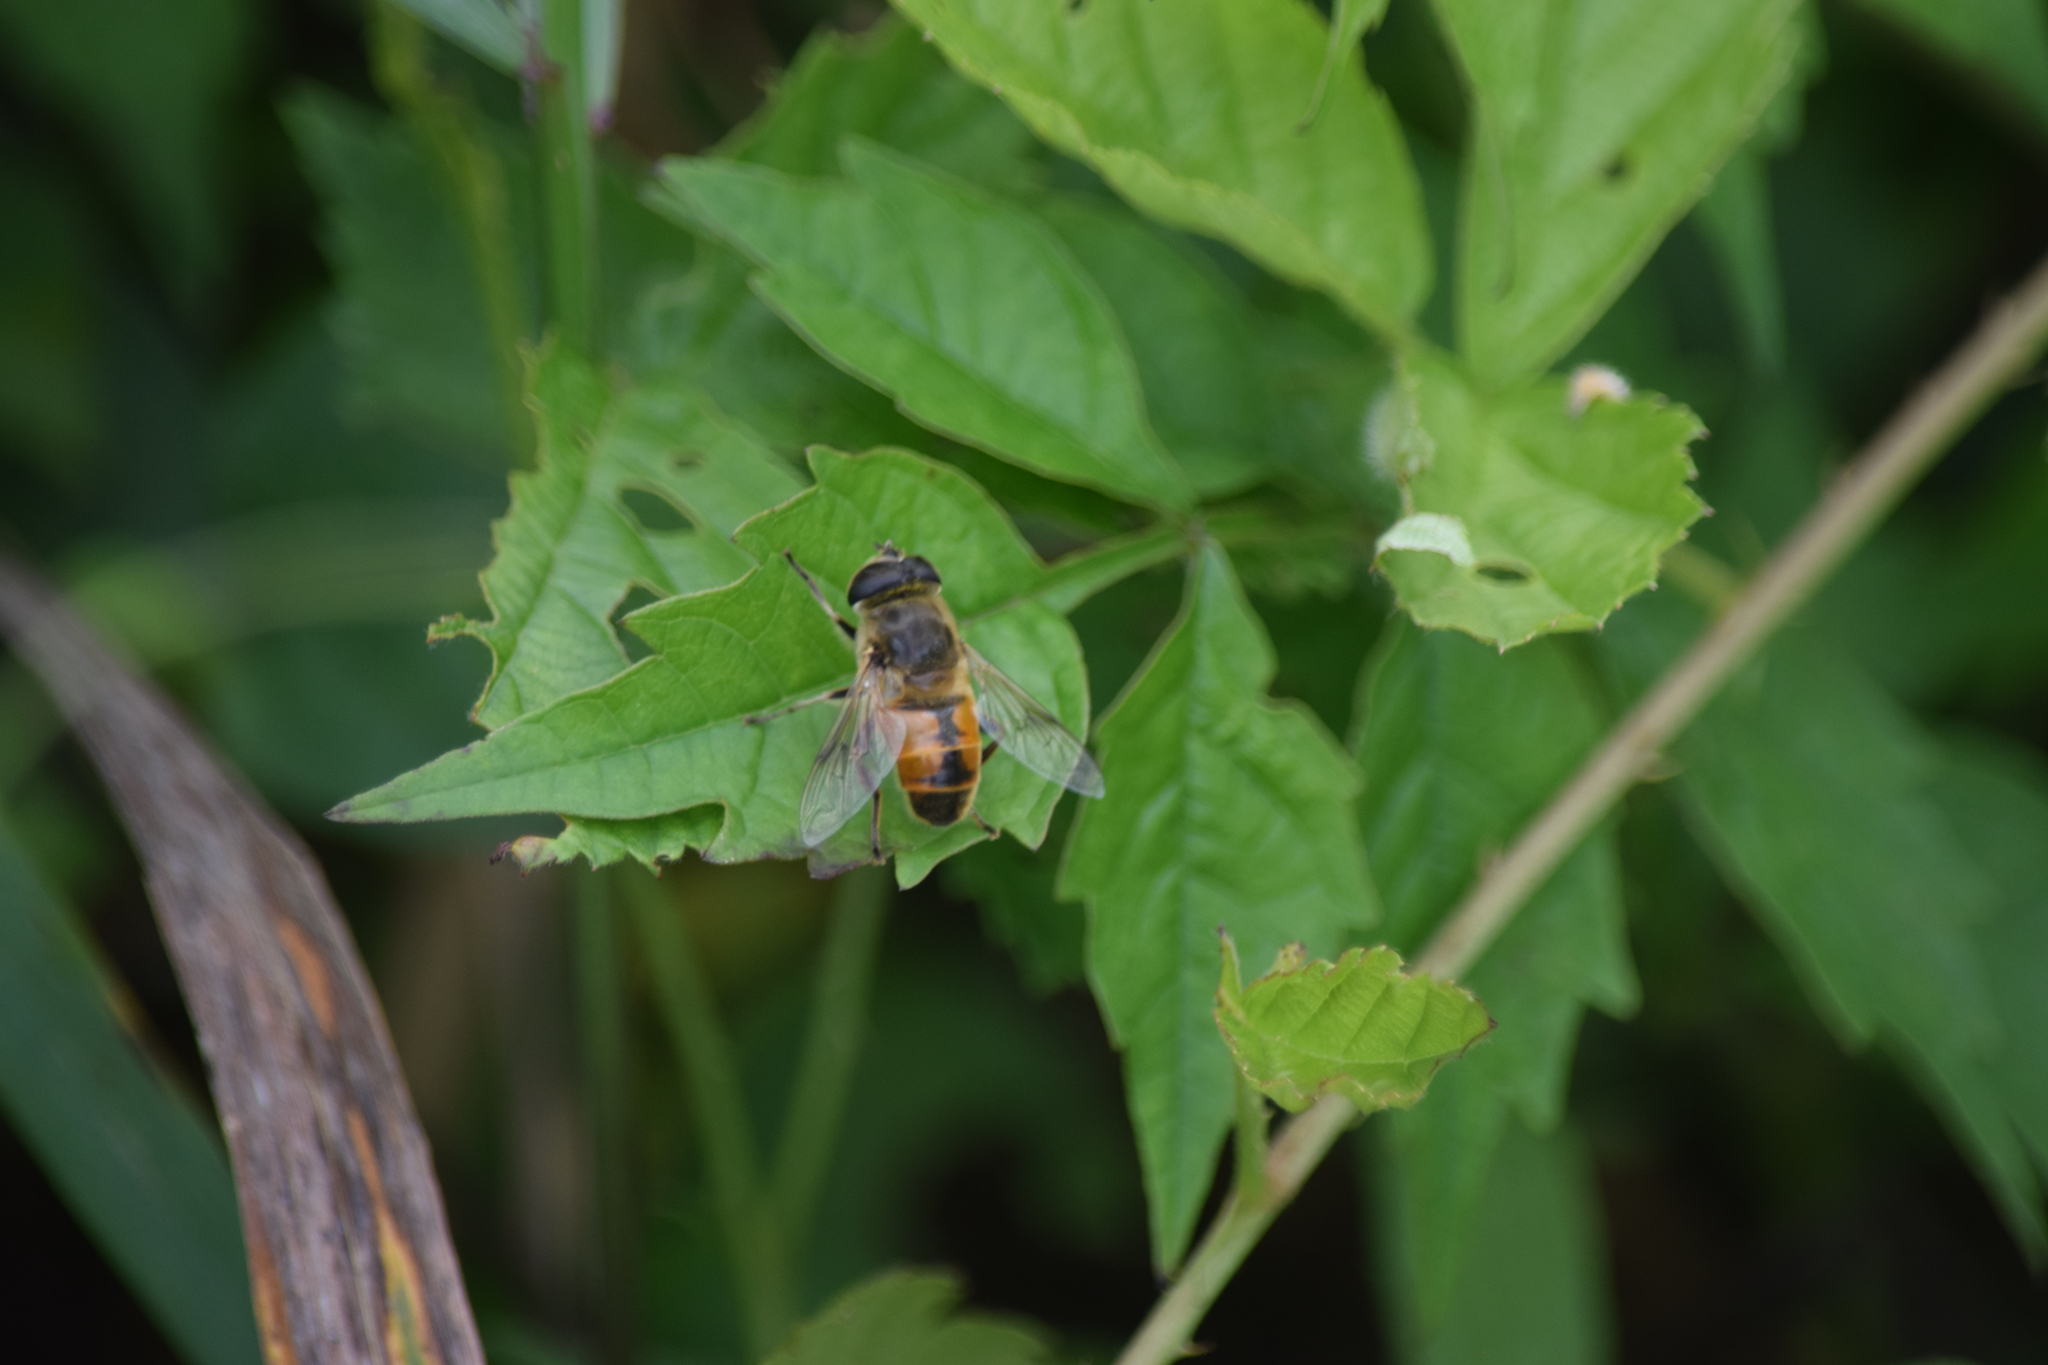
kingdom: Animalia
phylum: Arthropoda
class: Insecta
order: Diptera
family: Syrphidae
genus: Eristalis
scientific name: Eristalis tenax
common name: Drone fly
